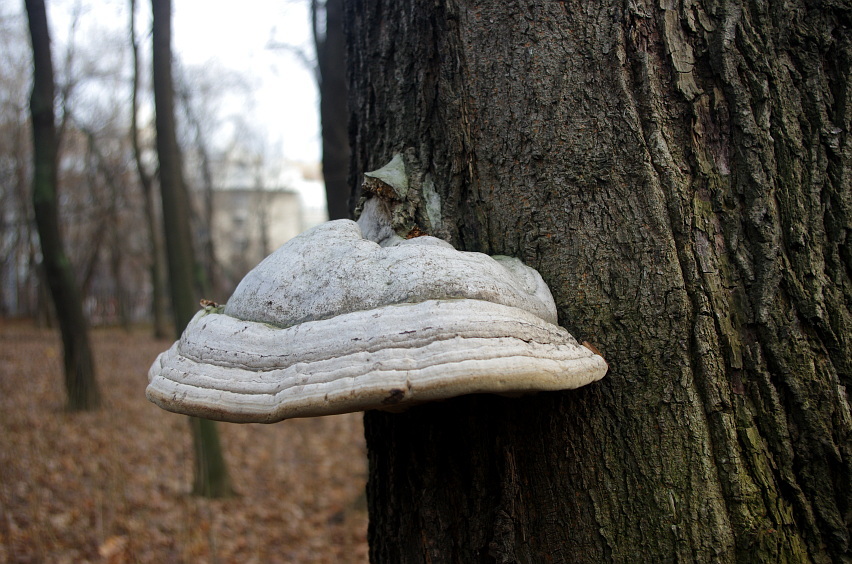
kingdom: Fungi
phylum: Basidiomycota
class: Agaricomycetes
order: Polyporales
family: Polyporaceae
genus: Fomes
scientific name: Fomes fomentarius
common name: Hoof fungus
